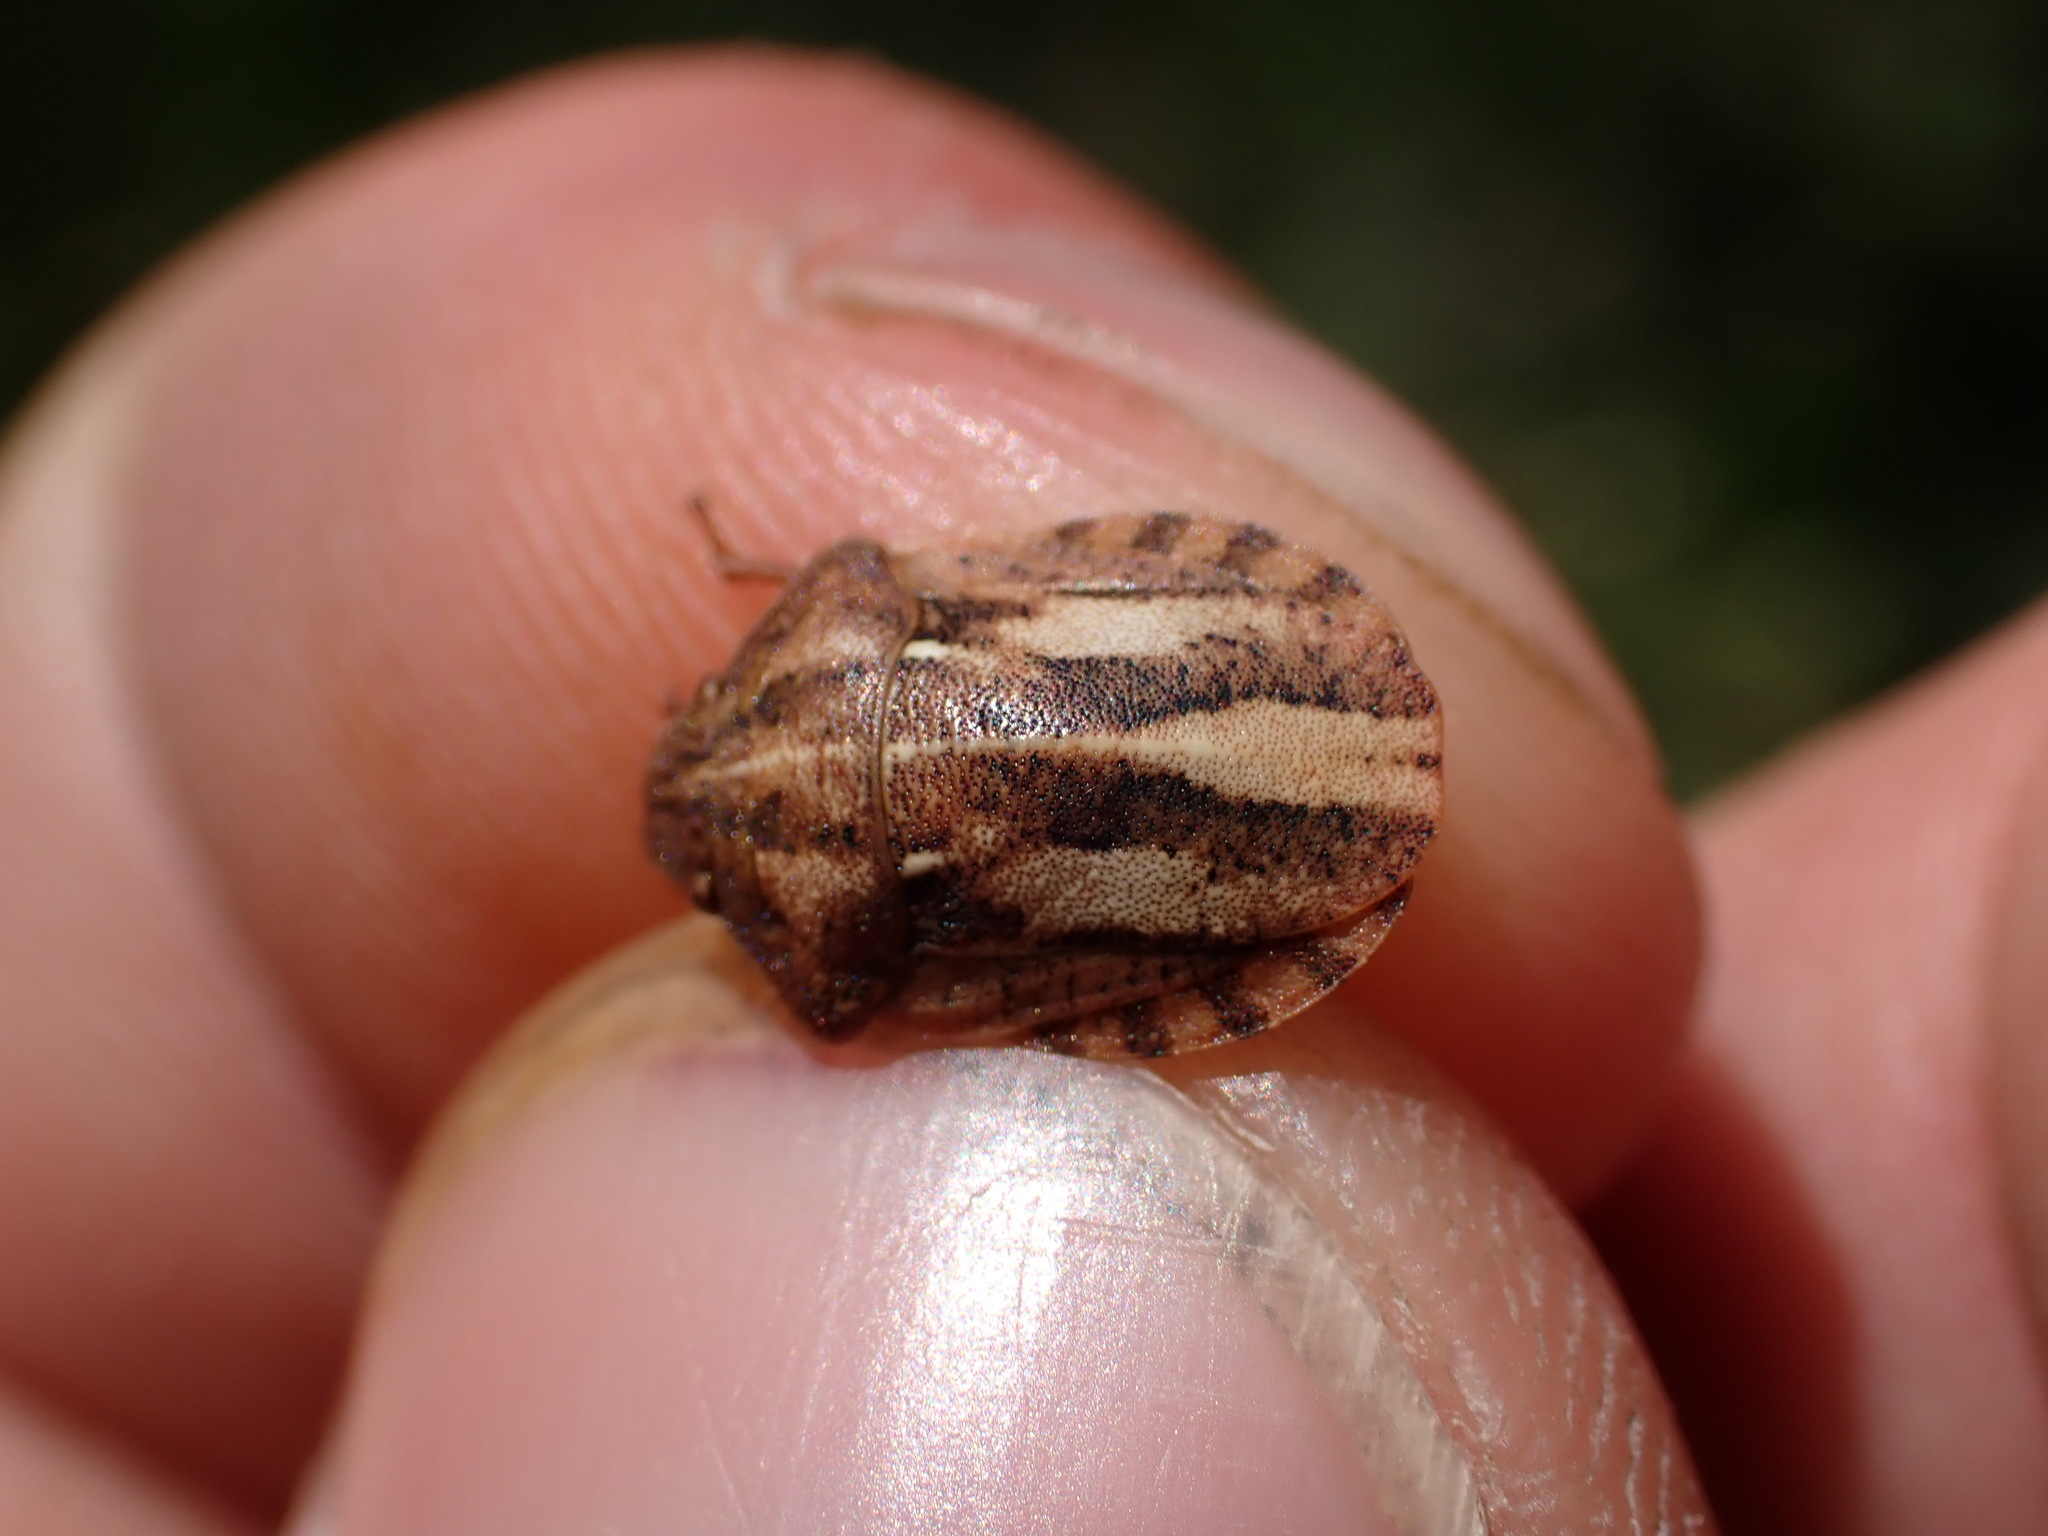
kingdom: Animalia
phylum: Arthropoda
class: Insecta
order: Hemiptera
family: Scutelleridae
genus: Eurygaster
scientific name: Eurygaster testudinaria
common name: Tortoise bug
